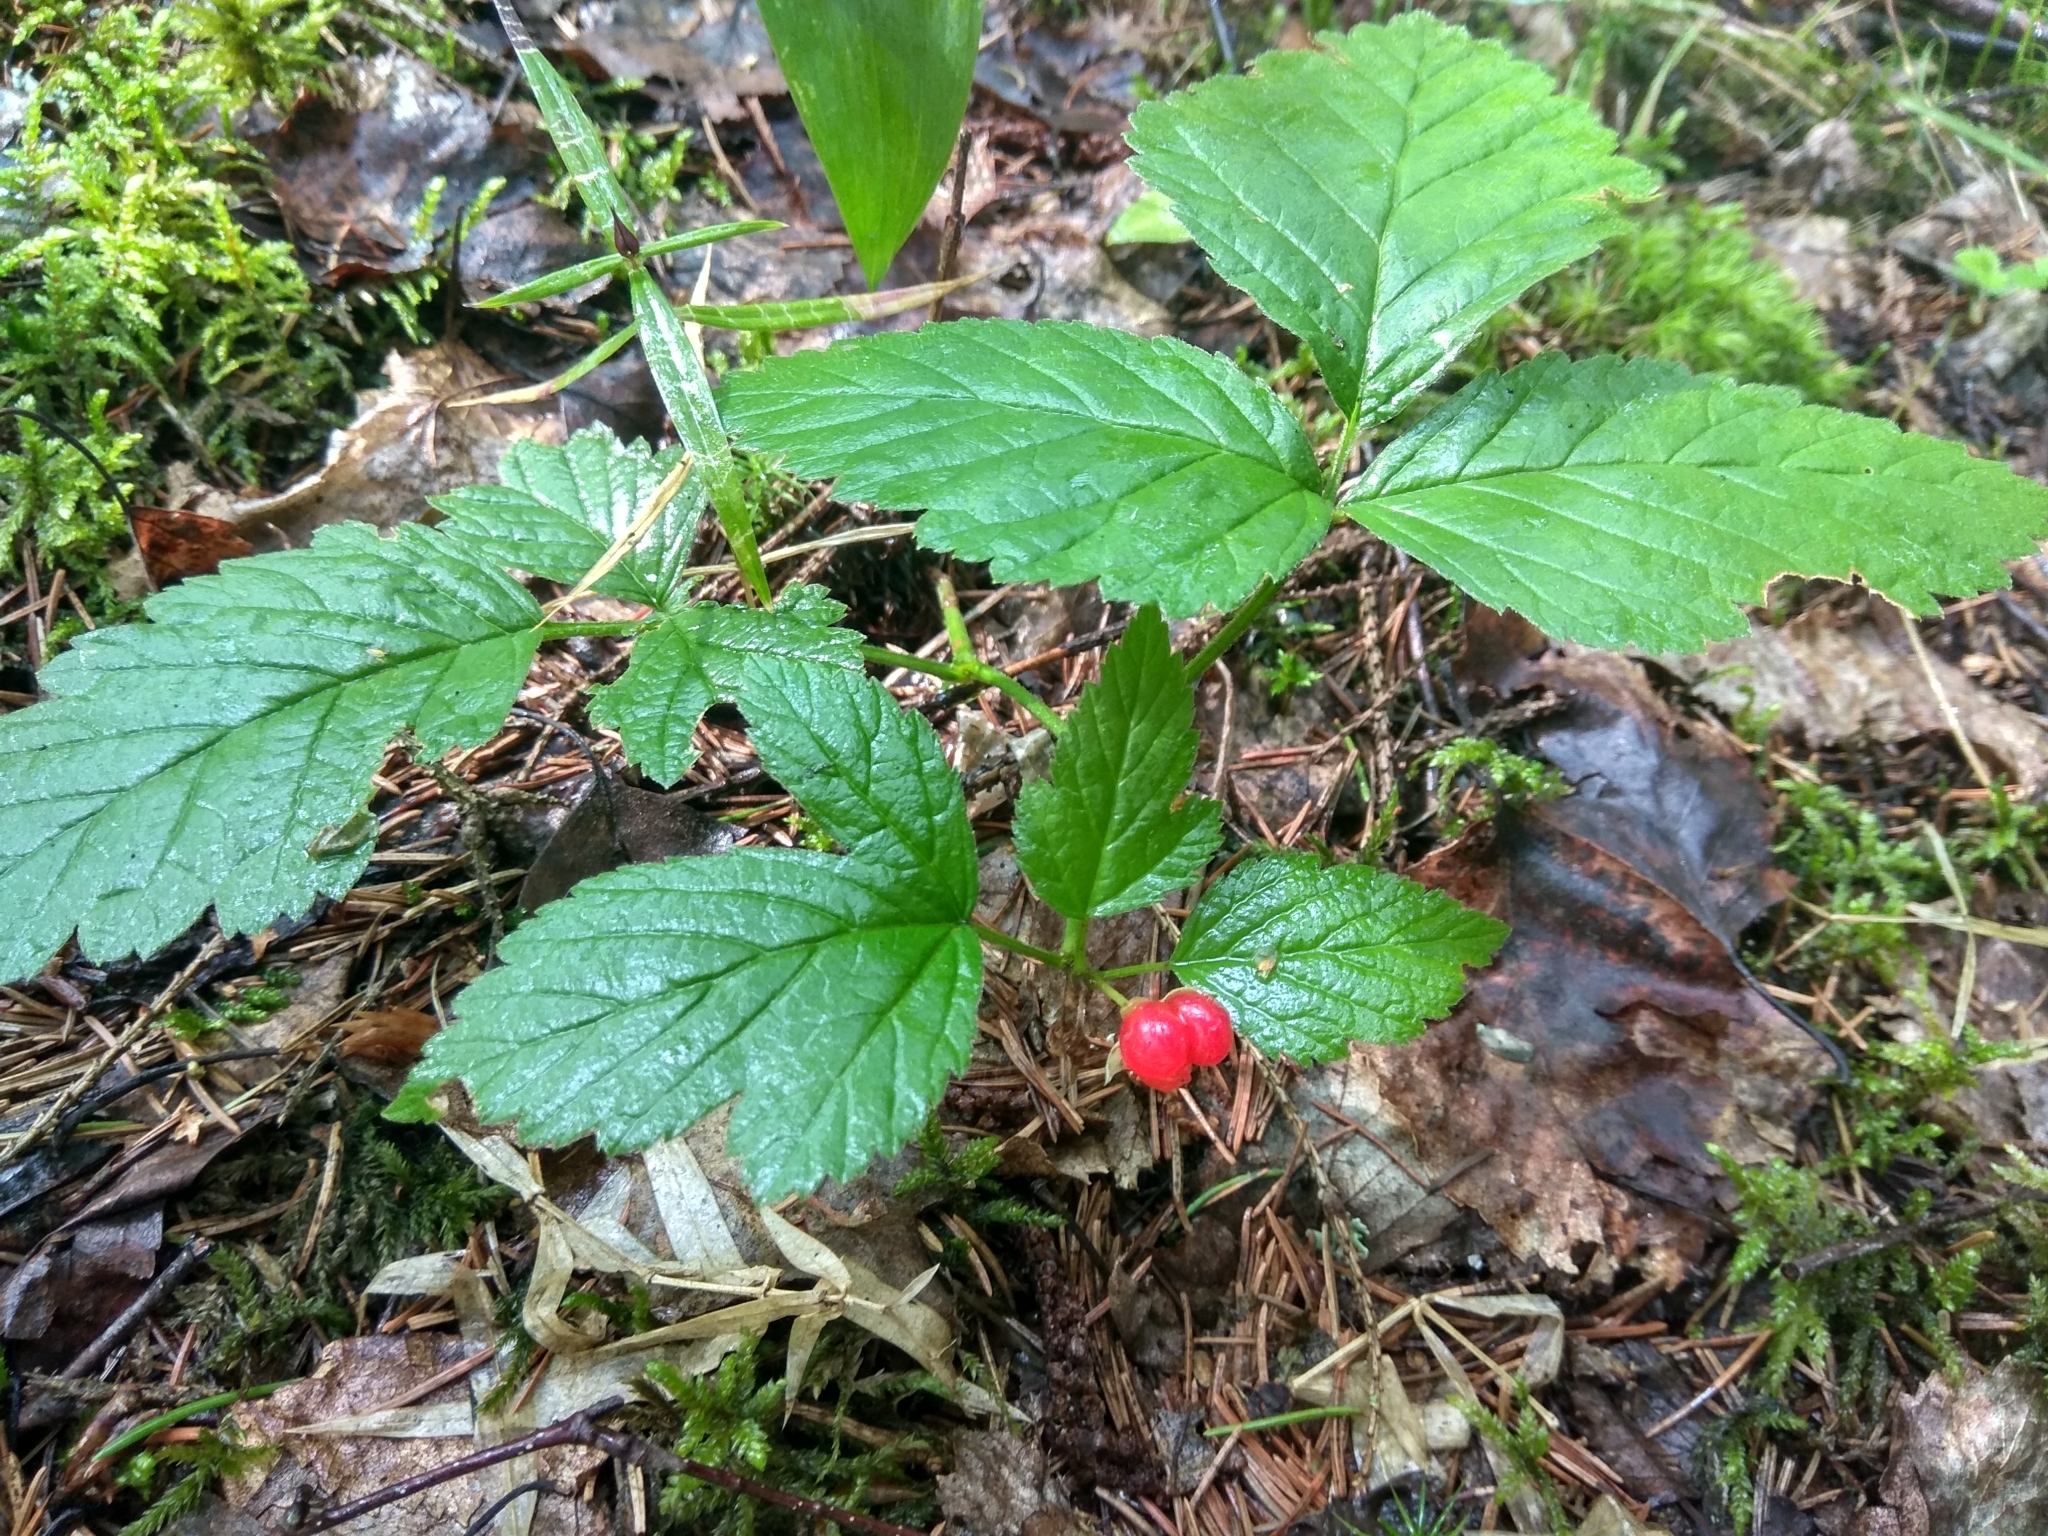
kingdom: Plantae
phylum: Tracheophyta
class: Magnoliopsida
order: Rosales
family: Rosaceae
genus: Rubus
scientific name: Rubus saxatilis
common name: Stone bramble
